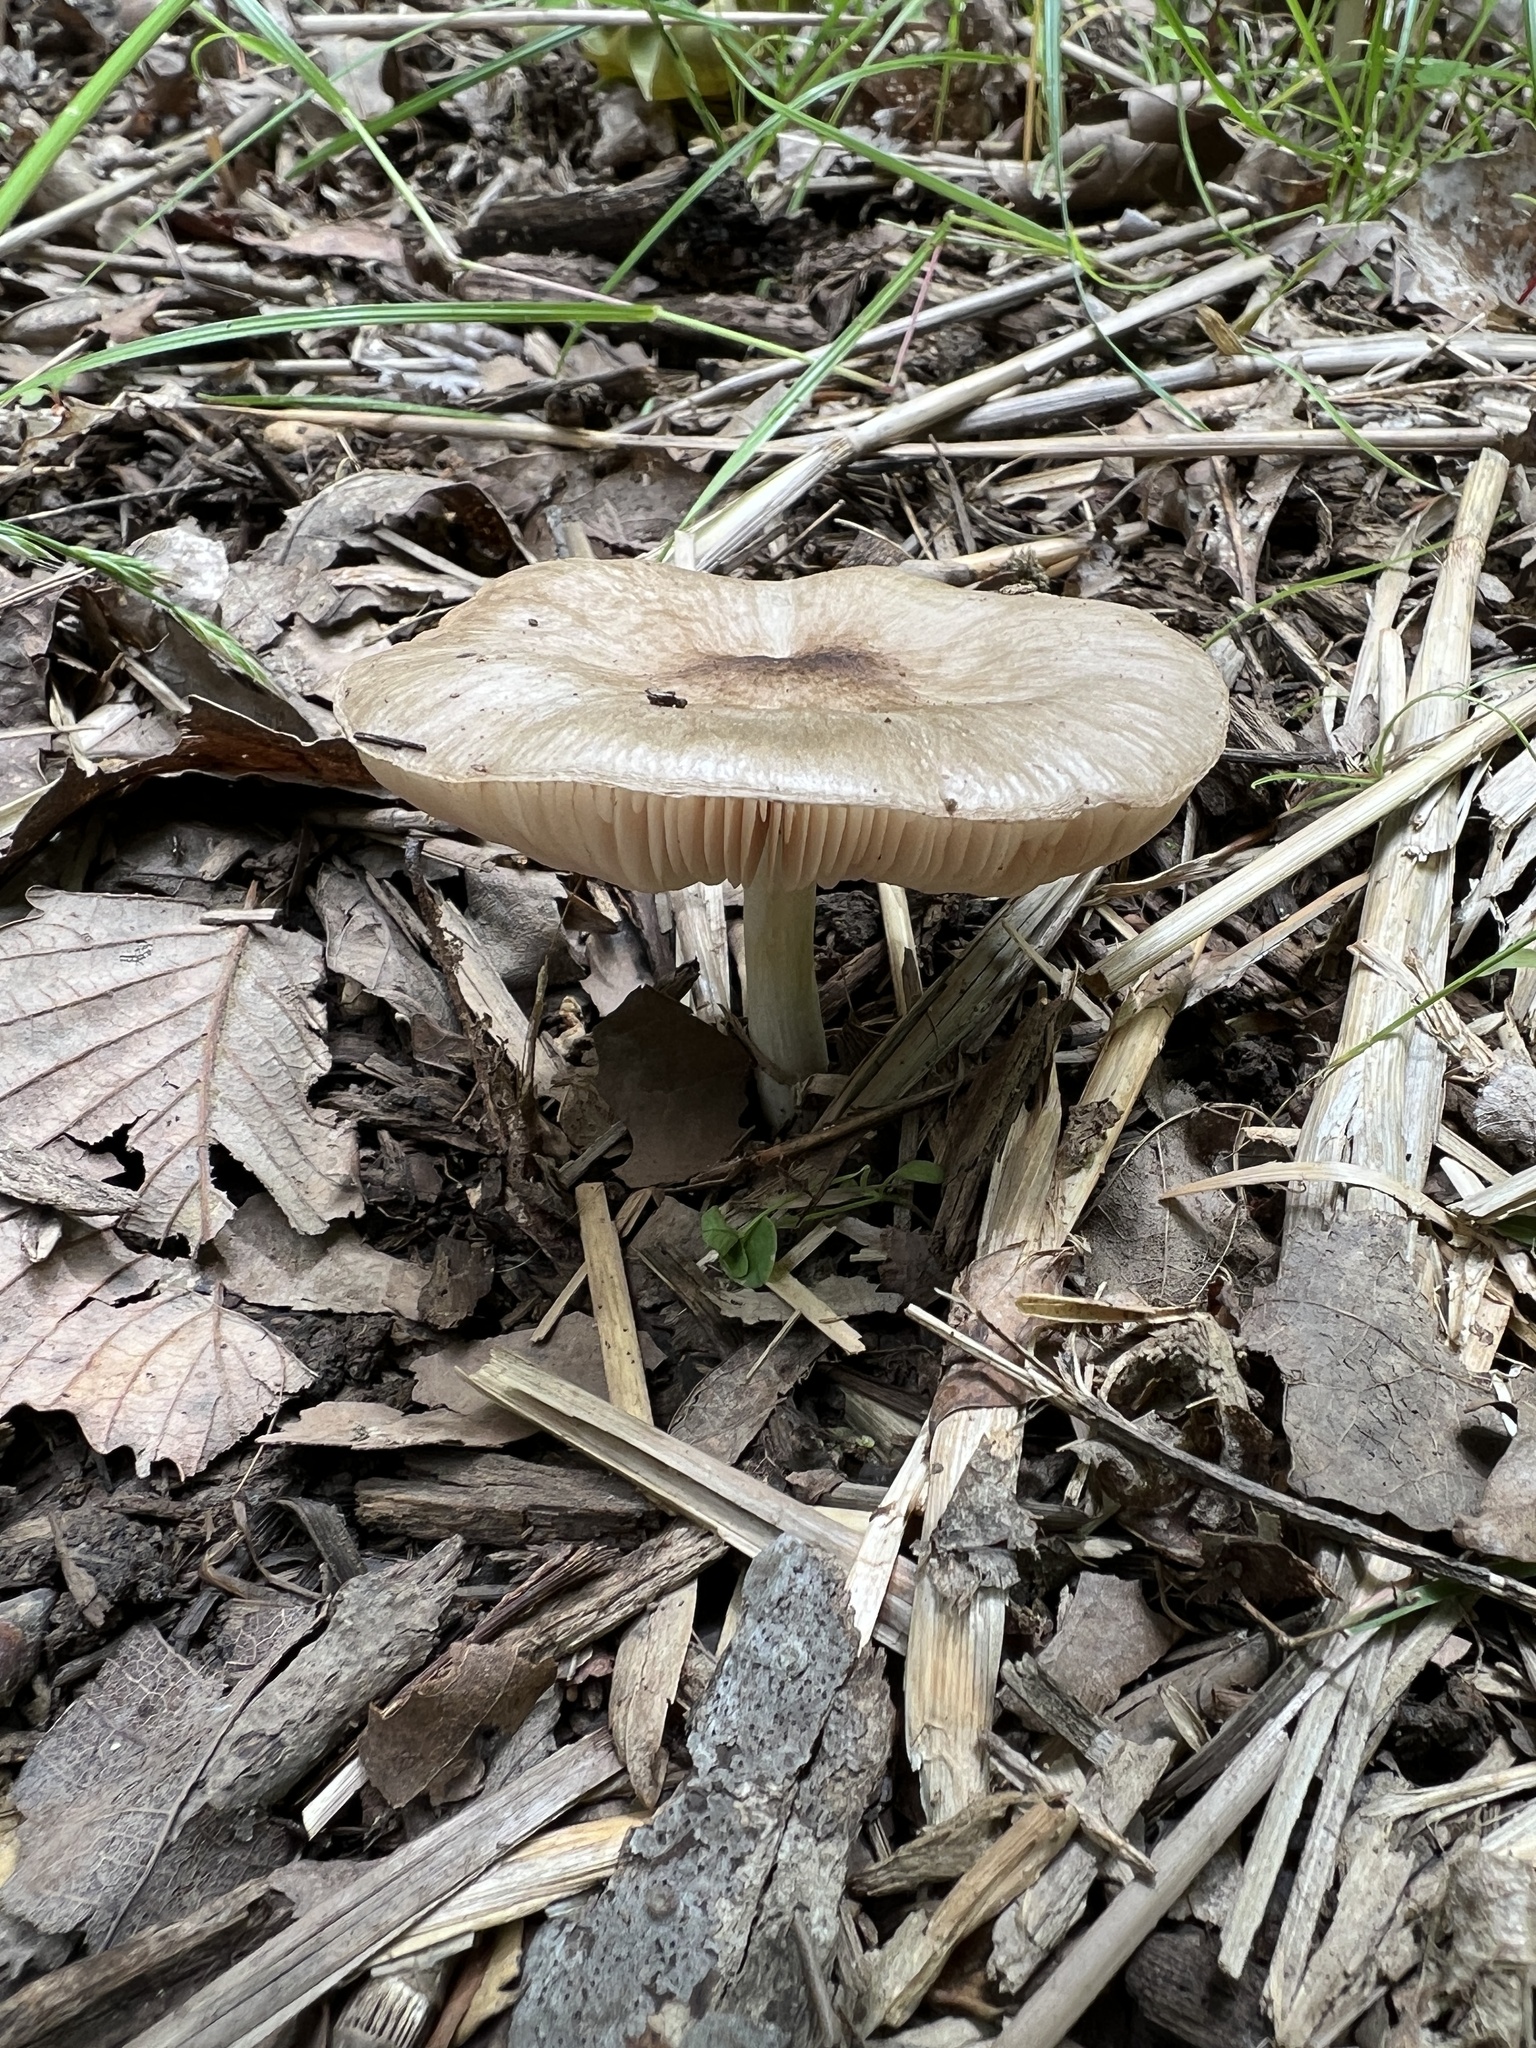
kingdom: Fungi
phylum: Basidiomycota
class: Agaricomycetes
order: Agaricales
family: Pluteaceae
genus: Pluteus
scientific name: Pluteus cervinus
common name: Deer shield
